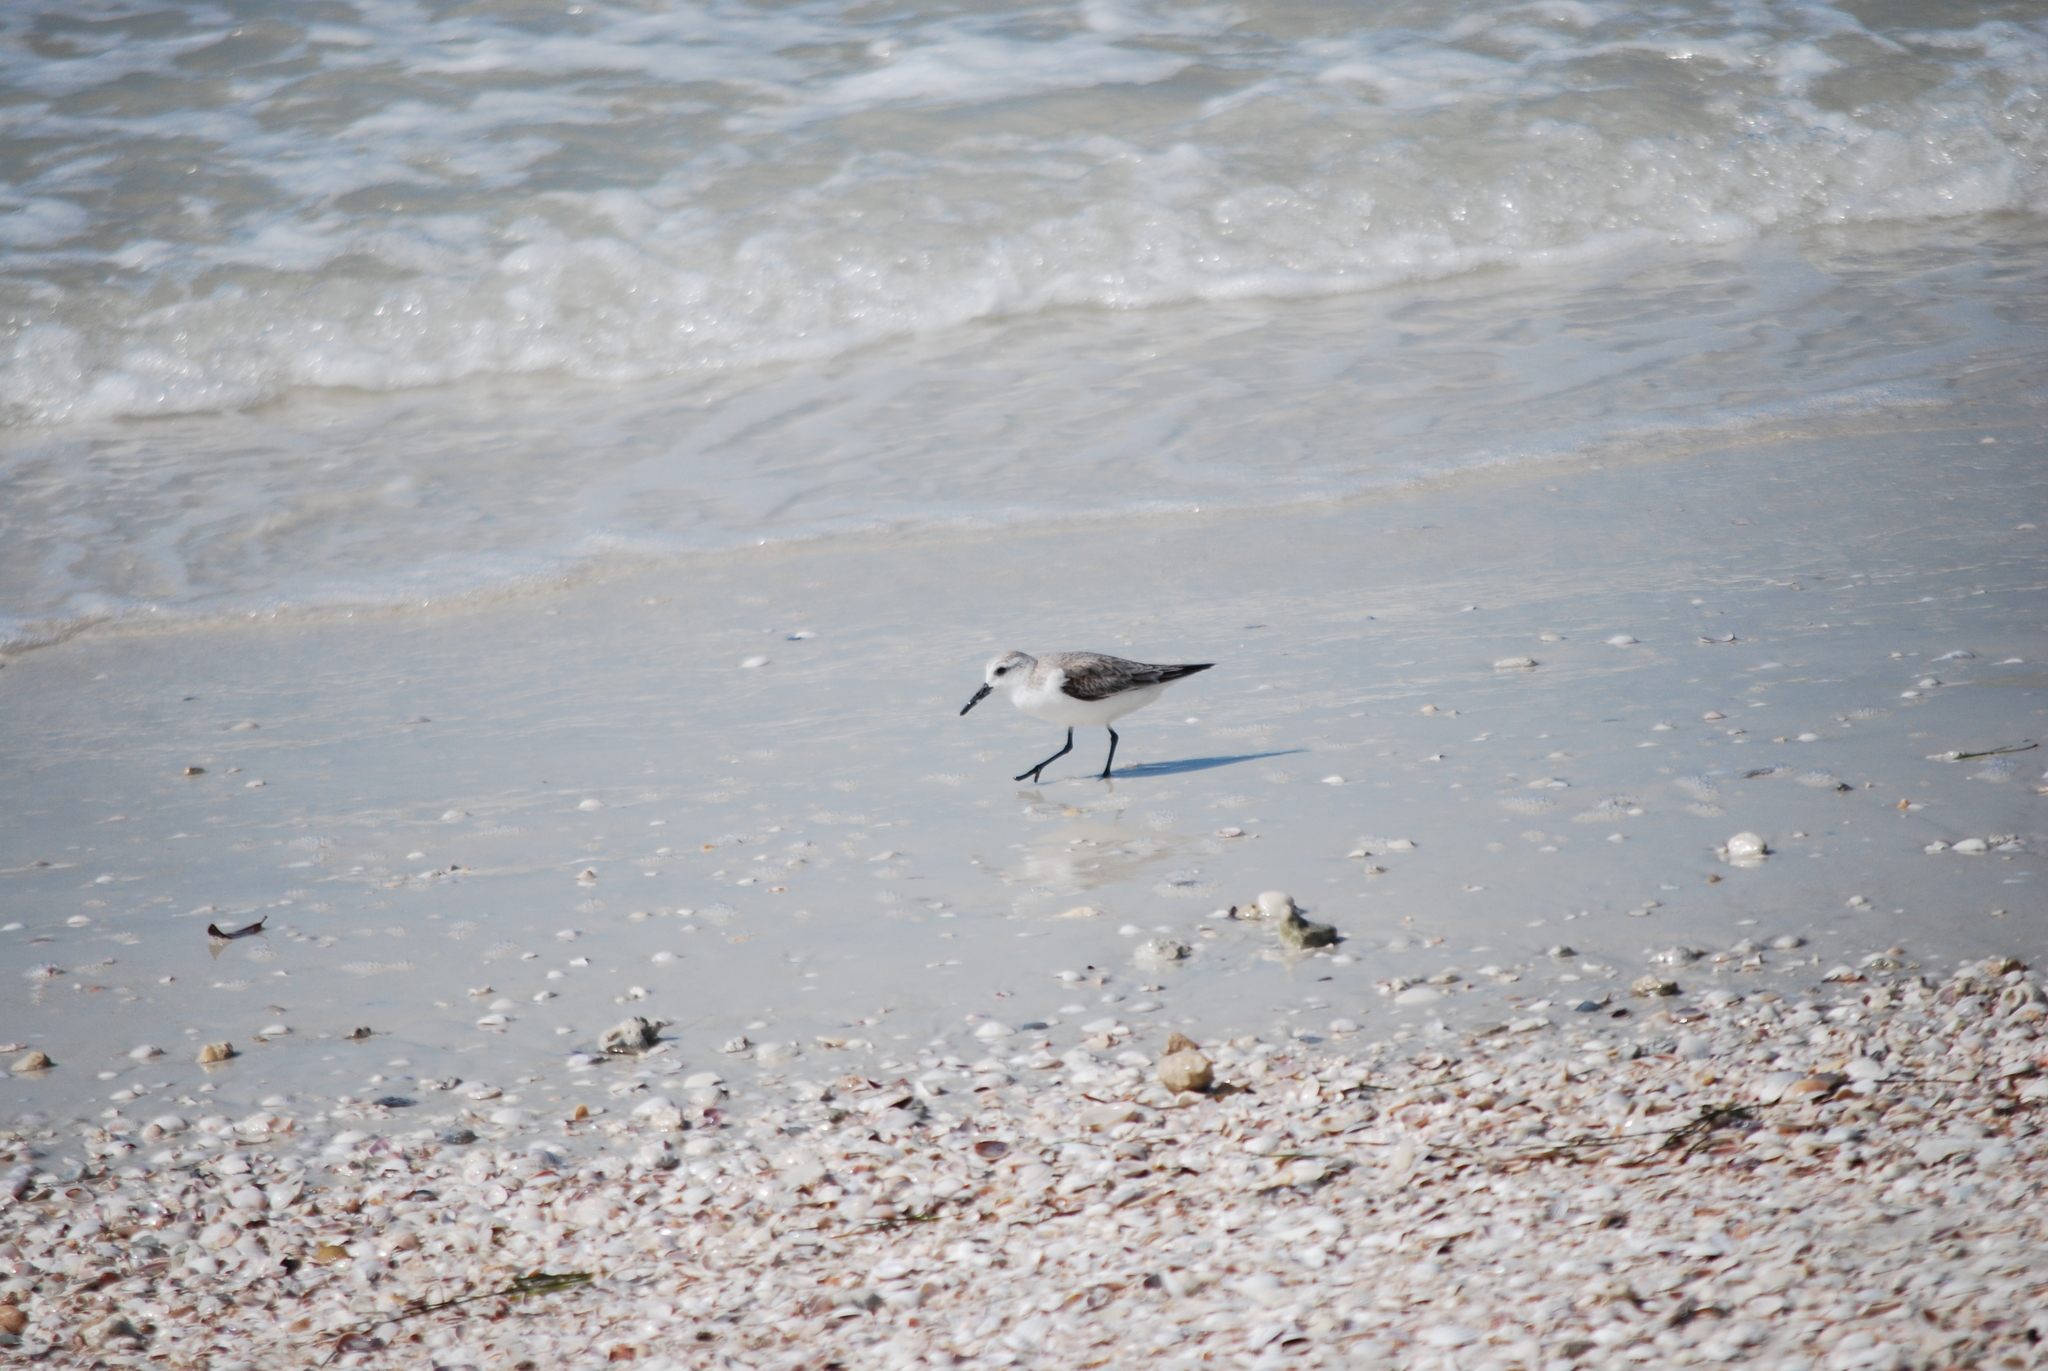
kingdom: Animalia
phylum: Chordata
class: Aves
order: Charadriiformes
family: Scolopacidae
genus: Calidris
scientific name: Calidris alba
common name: Sanderling
